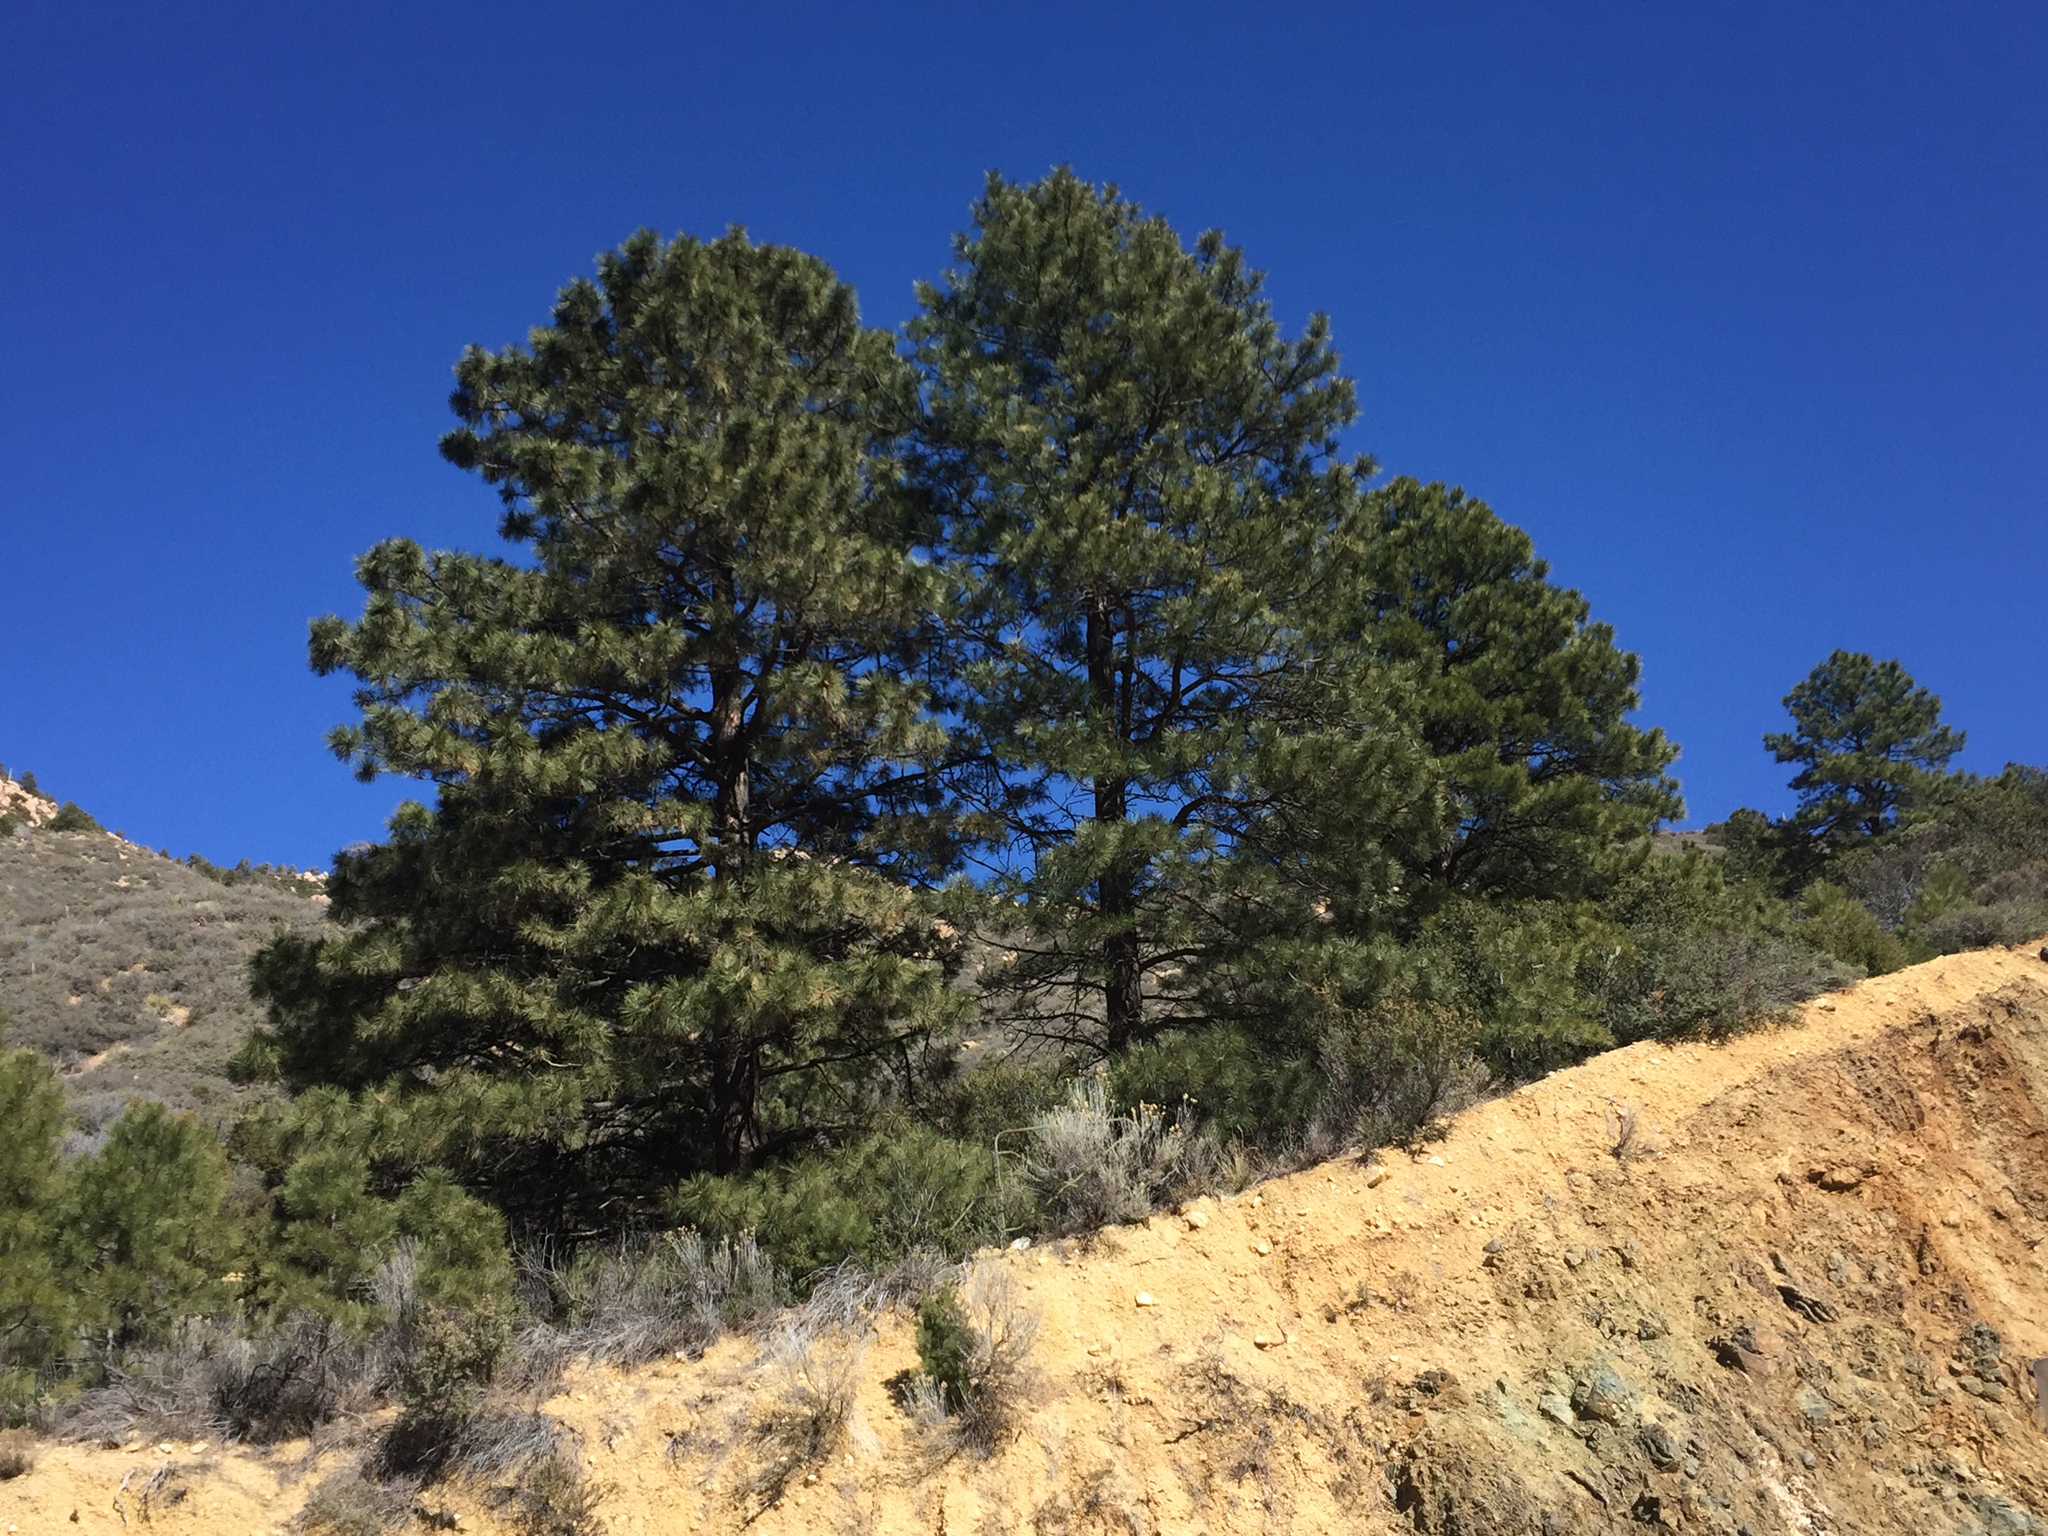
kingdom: Plantae
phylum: Tracheophyta
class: Pinopsida
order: Pinales
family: Pinaceae
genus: Pinus
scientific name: Pinus ponderosa
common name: Western yellow-pine
